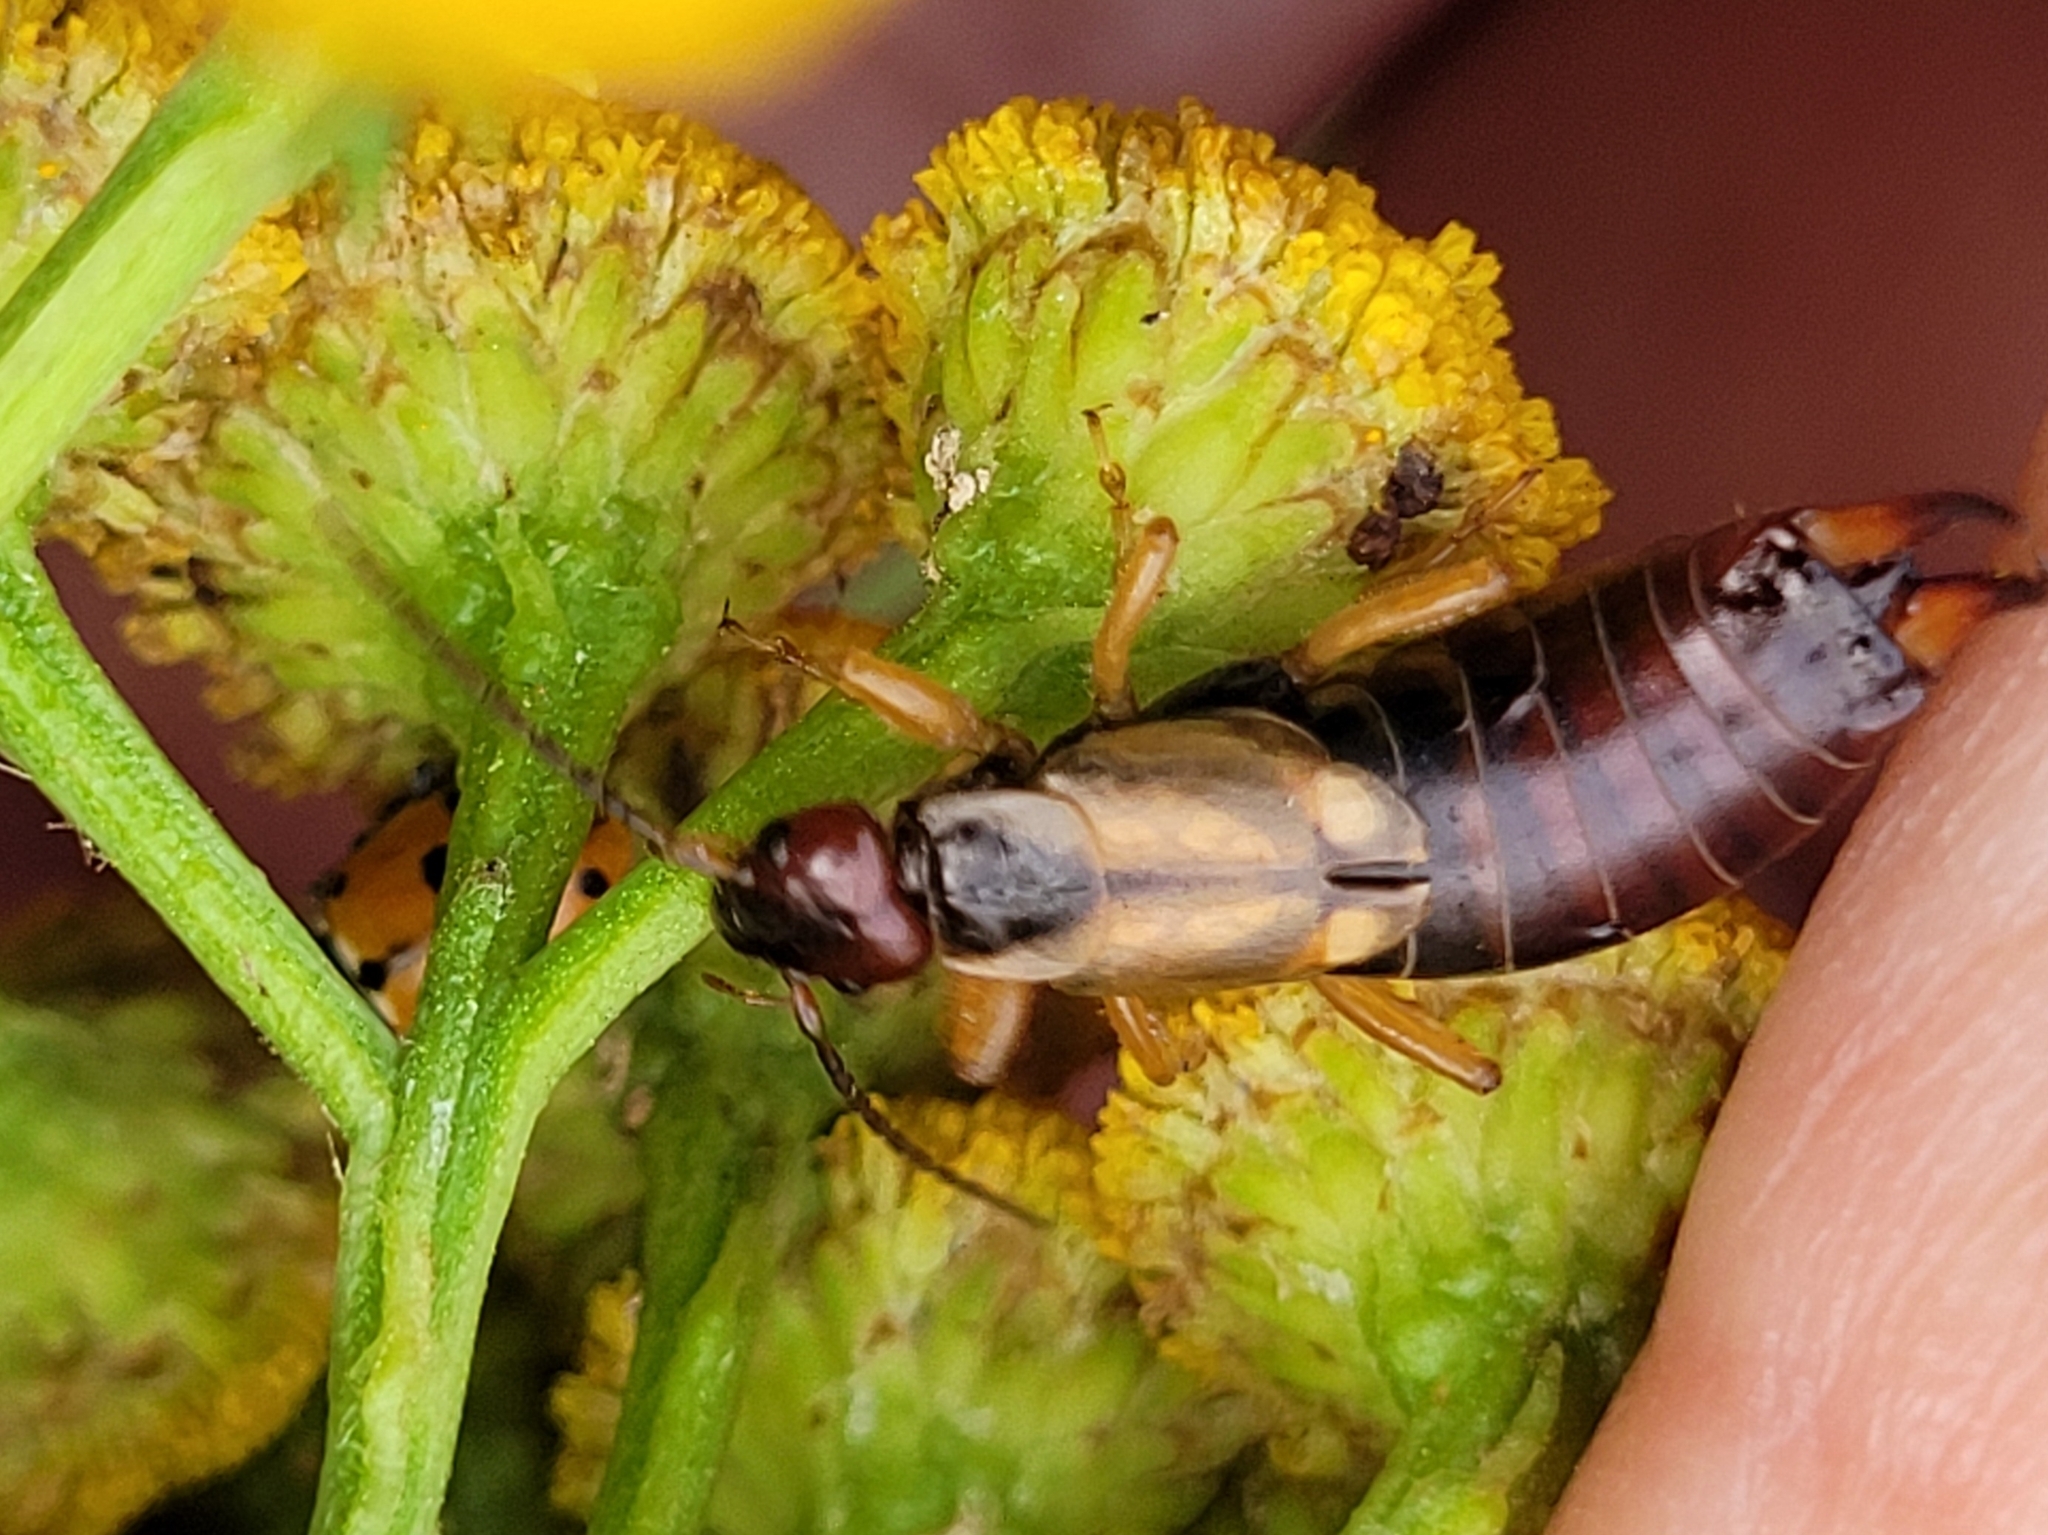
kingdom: Animalia
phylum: Arthropoda
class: Insecta
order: Dermaptera
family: Forficulidae
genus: Forficula
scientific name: Forficula
